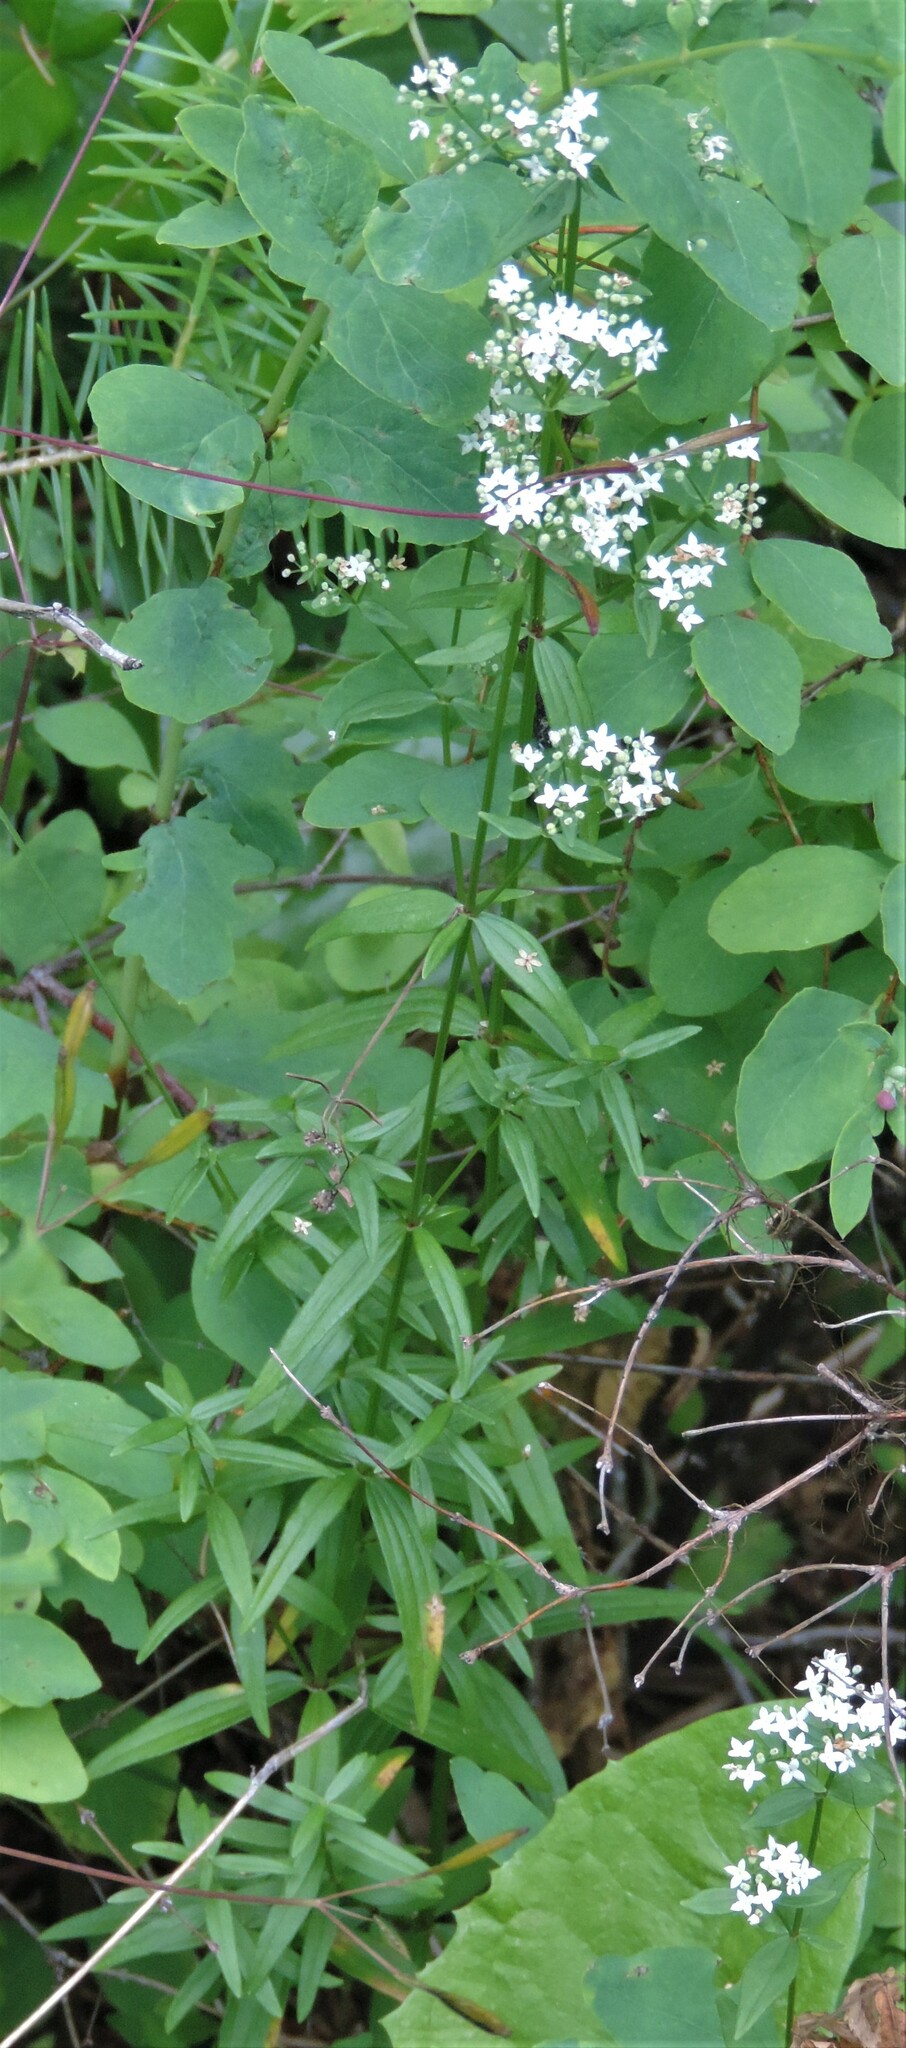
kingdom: Plantae
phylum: Tracheophyta
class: Magnoliopsida
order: Gentianales
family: Rubiaceae
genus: Galium
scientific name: Galium boreale
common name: Northern bedstraw
